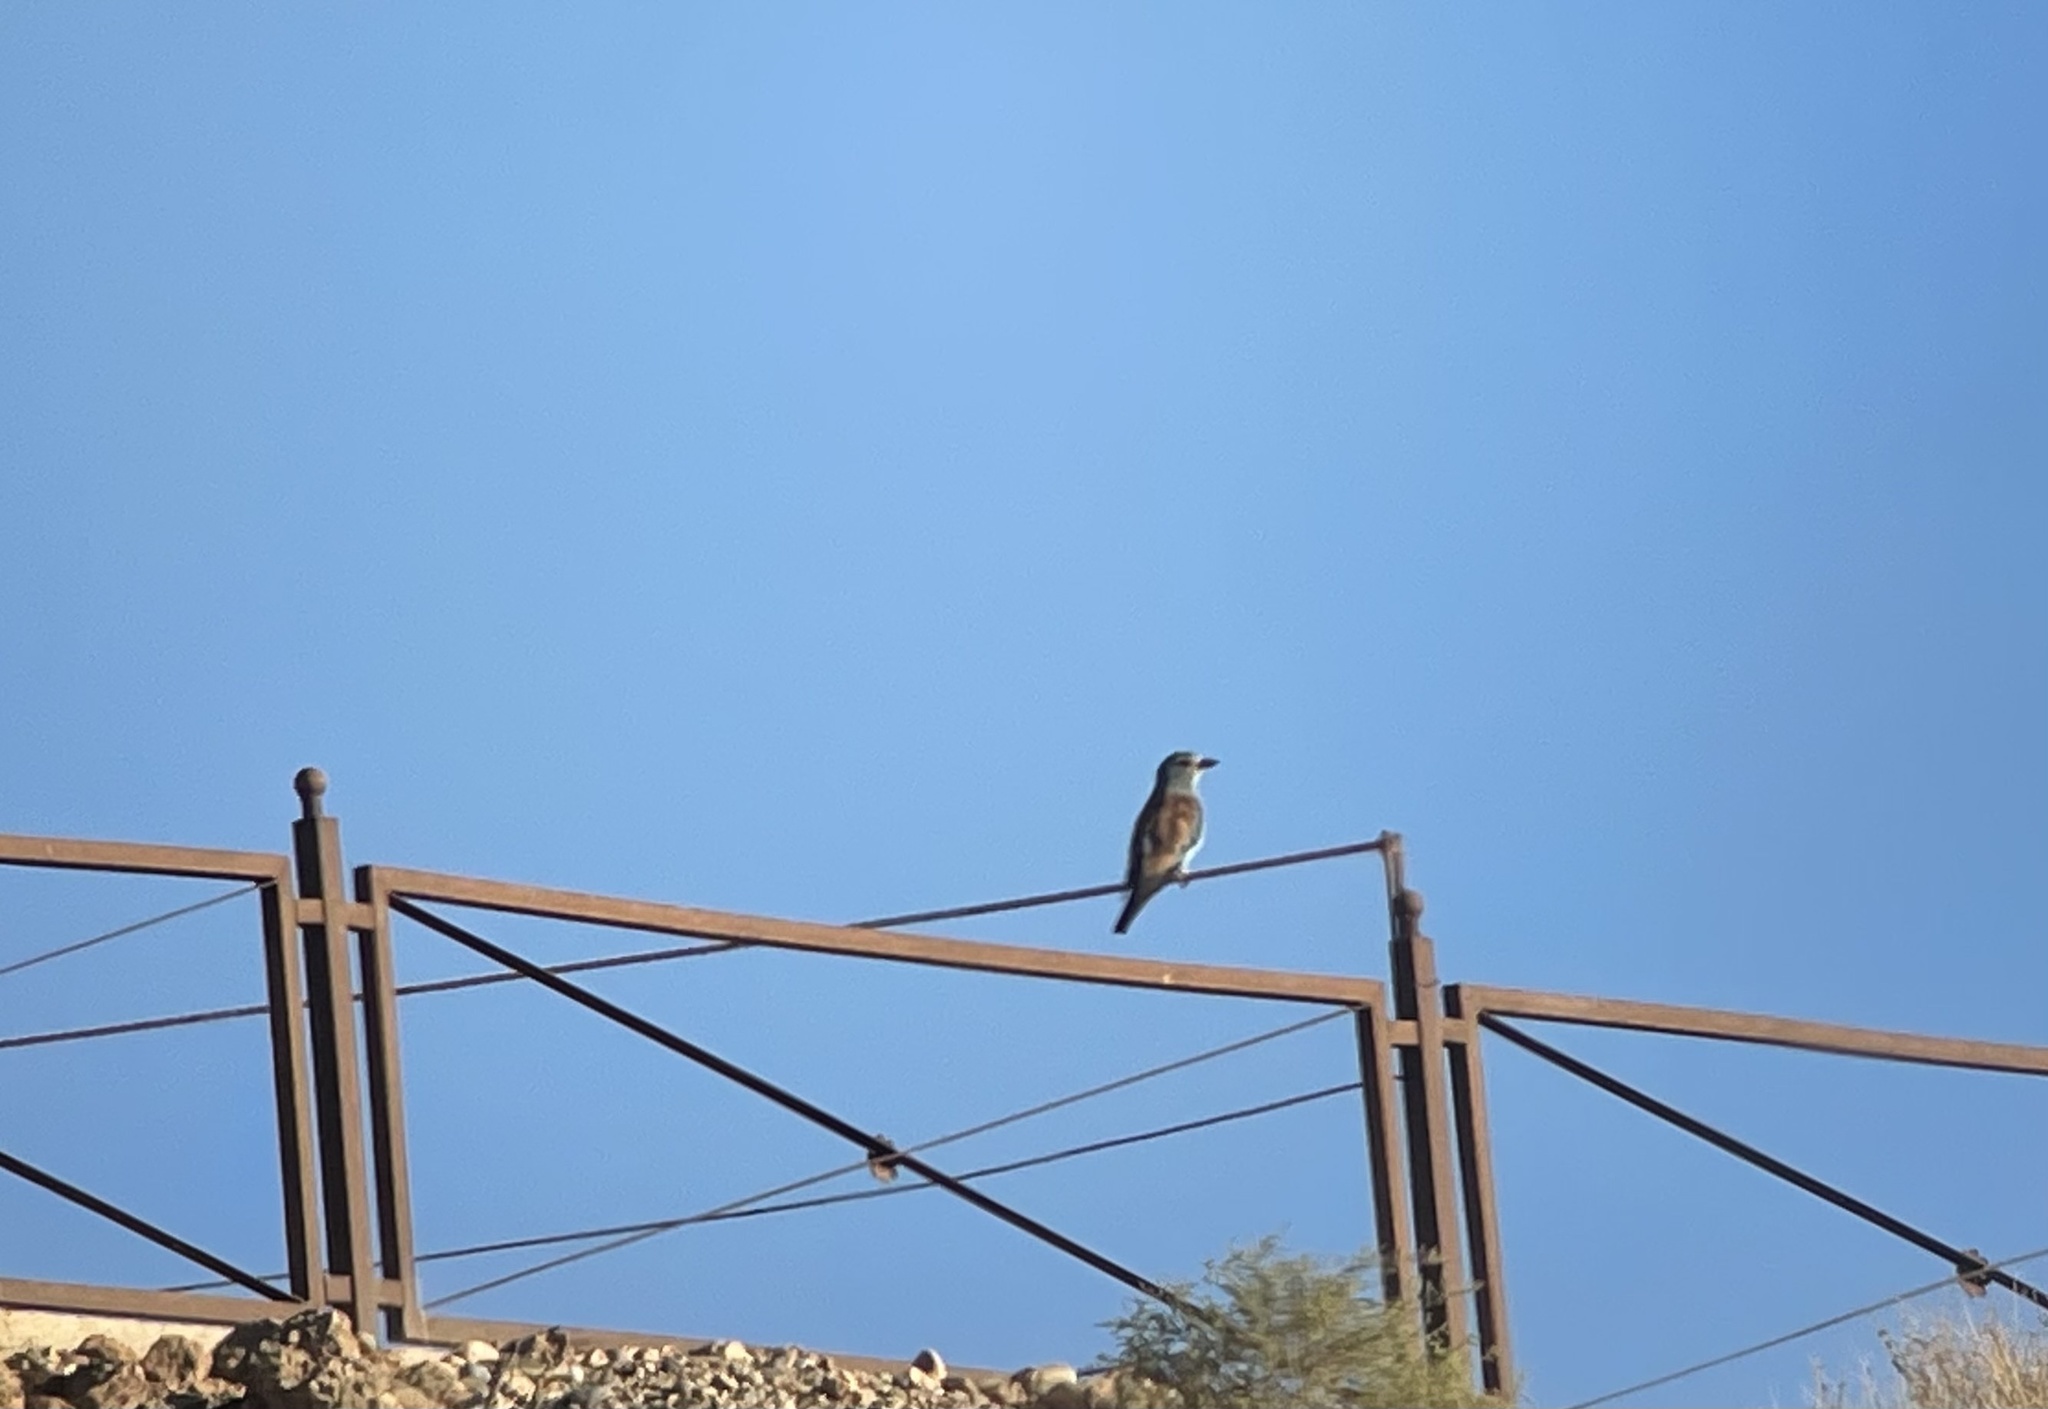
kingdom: Animalia
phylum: Chordata
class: Aves
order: Coraciiformes
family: Coraciidae
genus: Coracias
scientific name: Coracias garrulus
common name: European roller
